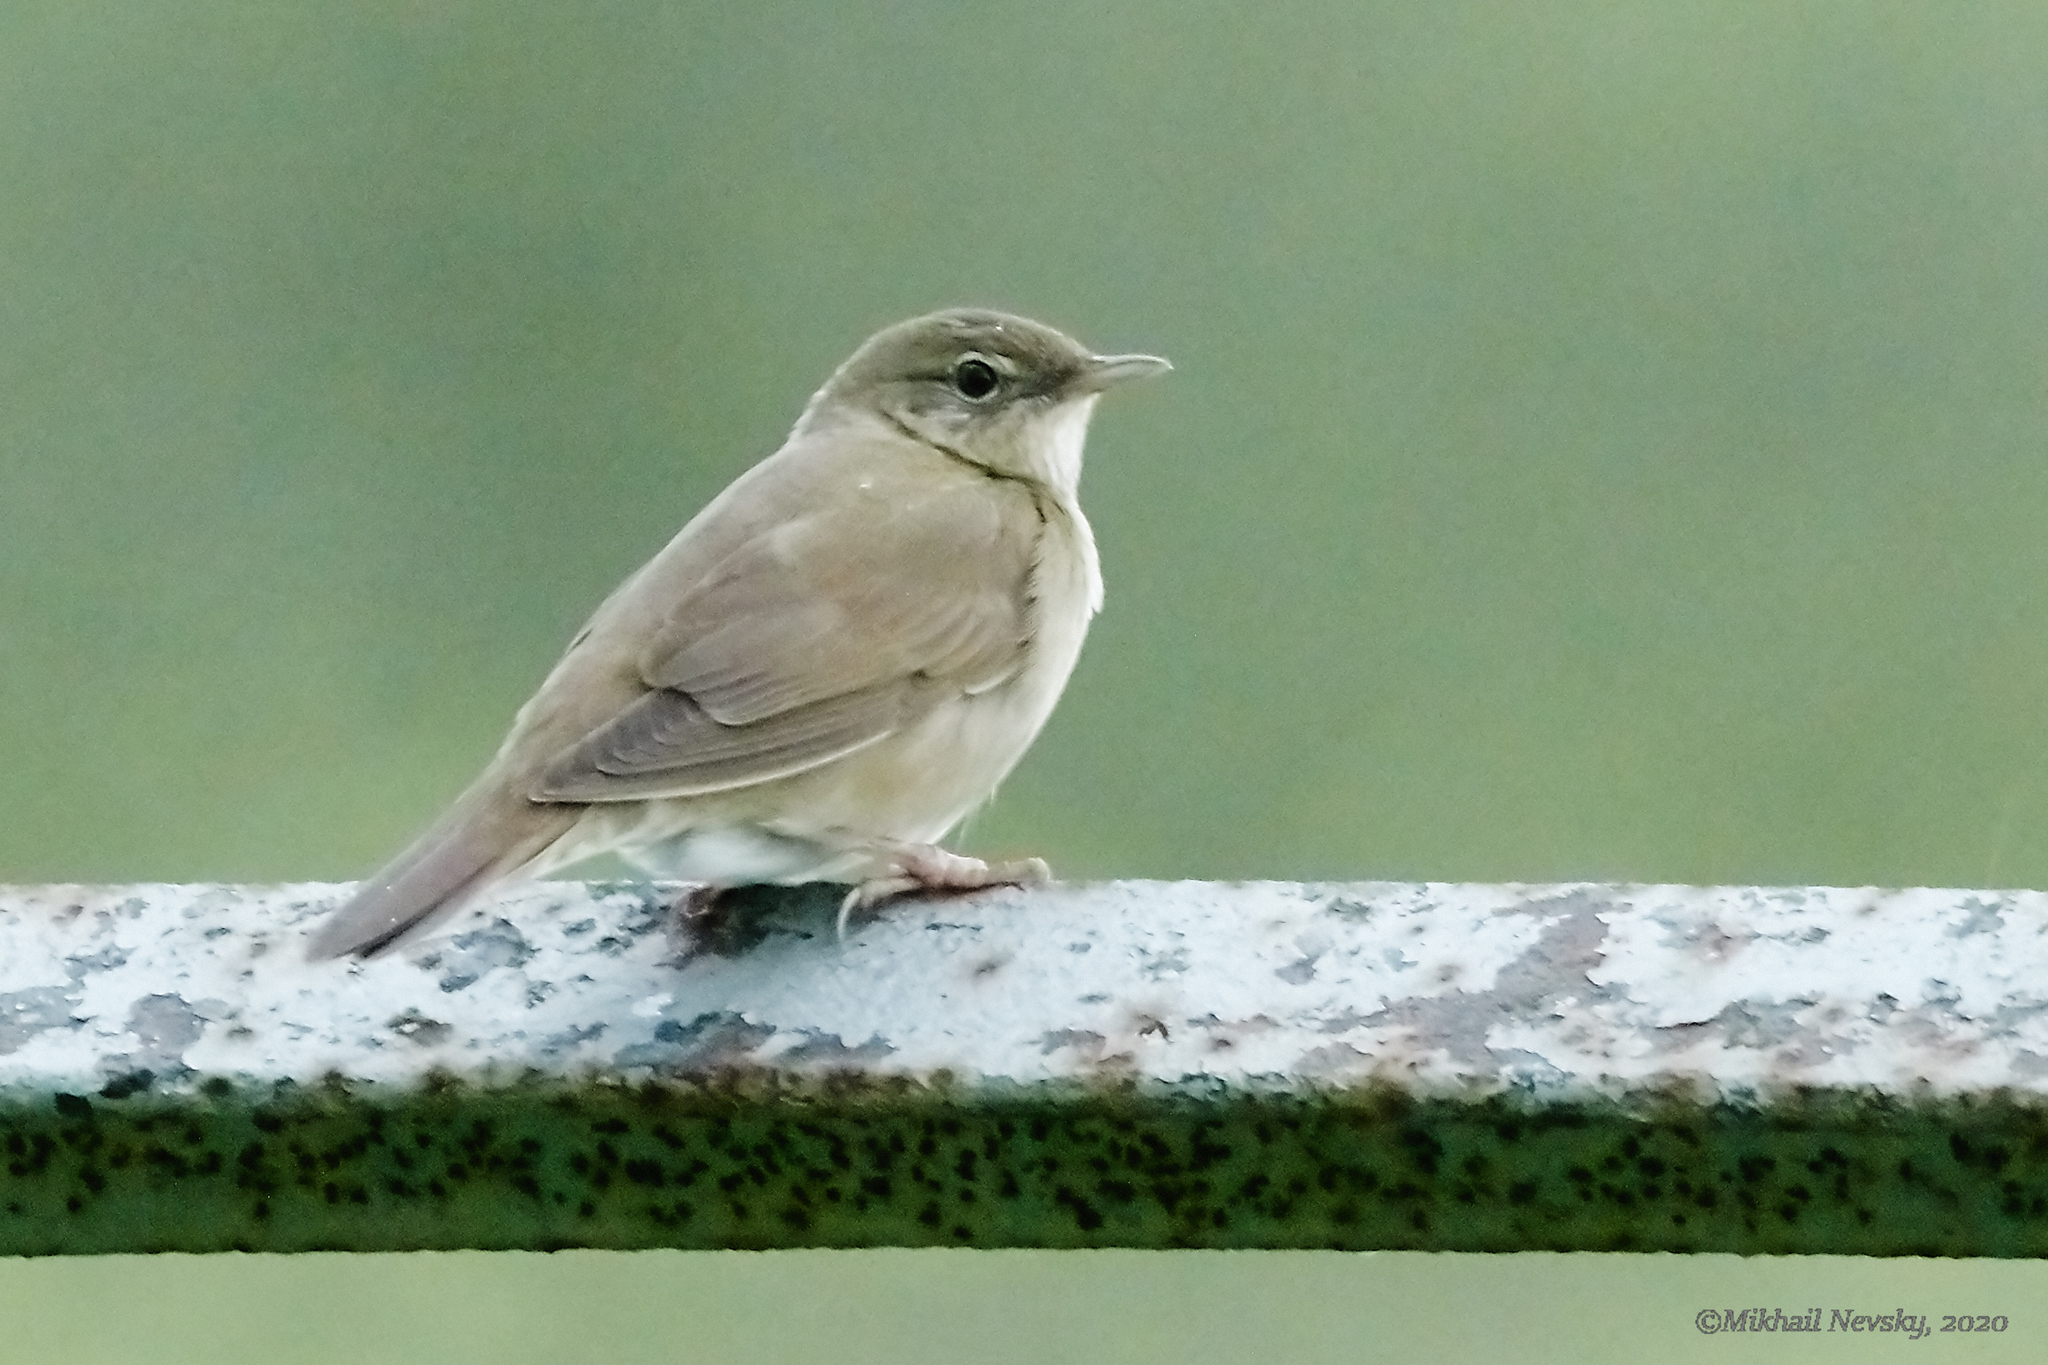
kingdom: Animalia
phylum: Chordata
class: Aves
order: Passeriformes
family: Locustellidae
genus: Locustella
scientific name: Locustella fluviatilis
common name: River warbler
